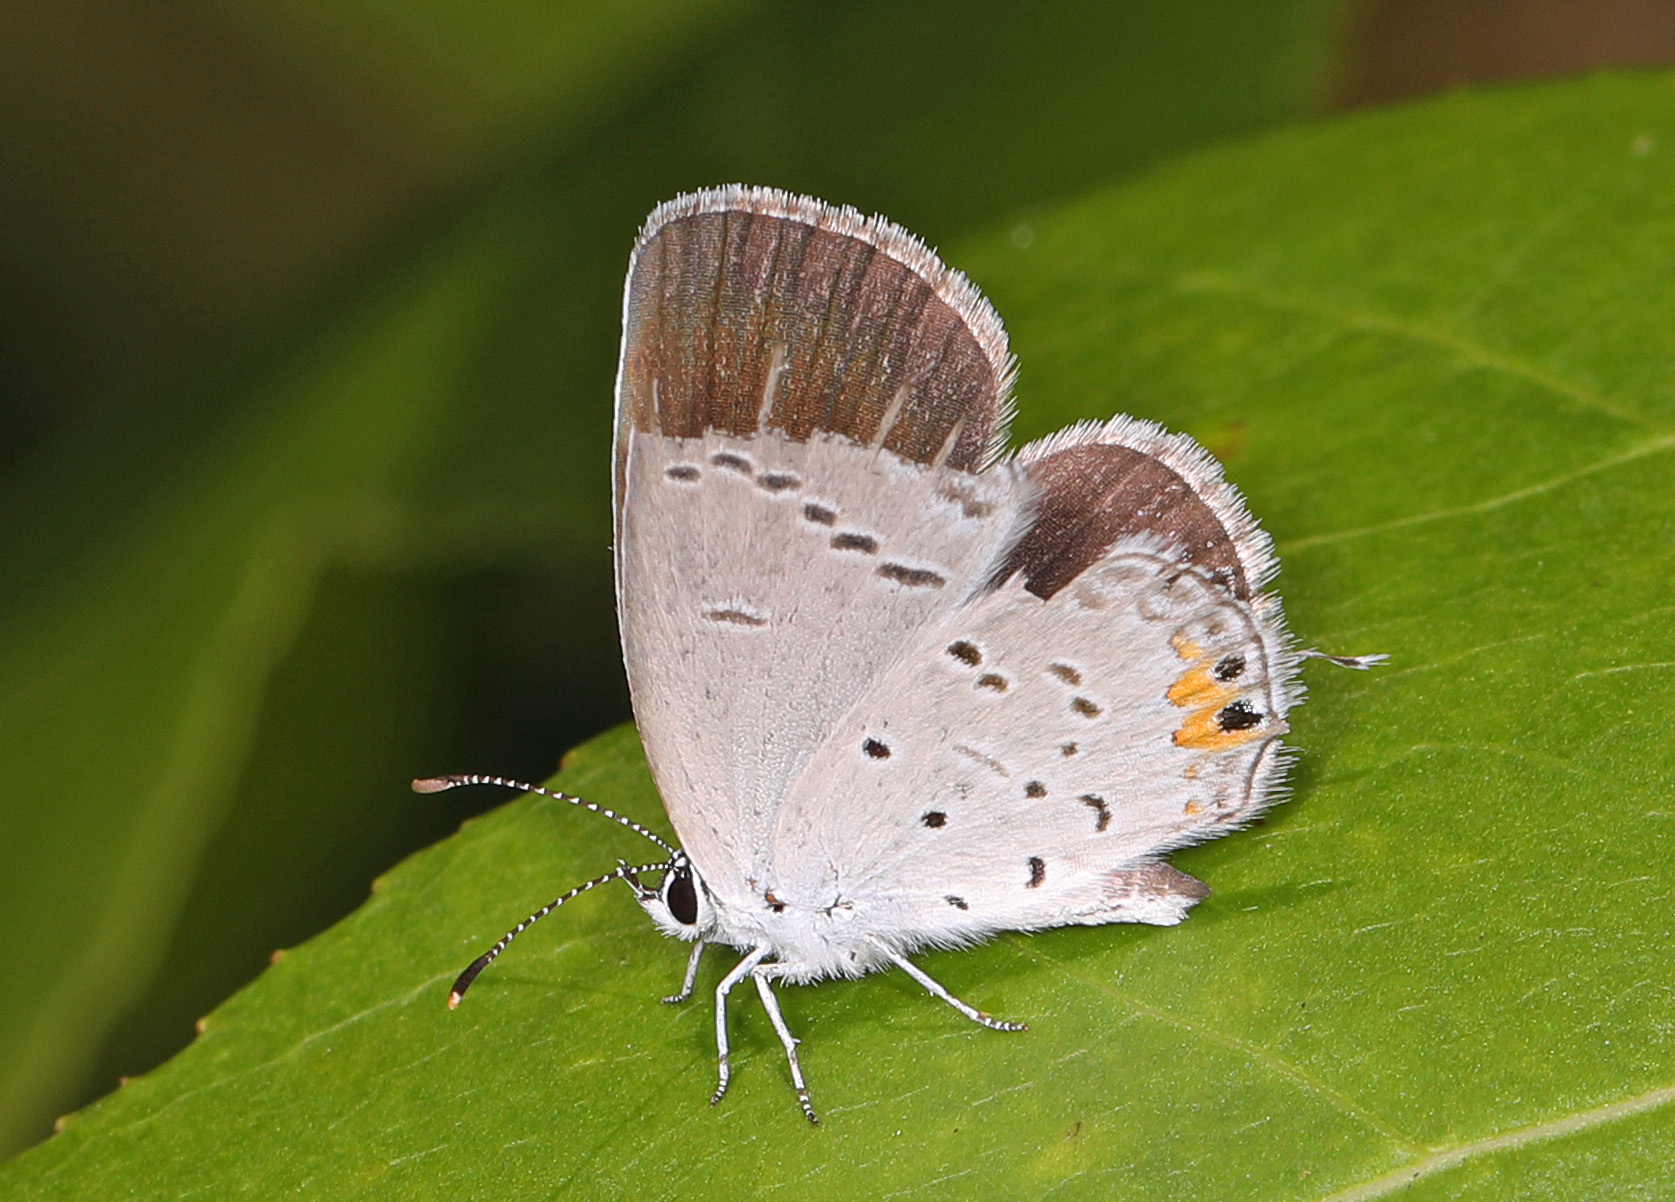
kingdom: Animalia
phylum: Arthropoda
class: Insecta
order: Lepidoptera
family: Lycaenidae
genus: Elkalyce
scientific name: Elkalyce comyntas
